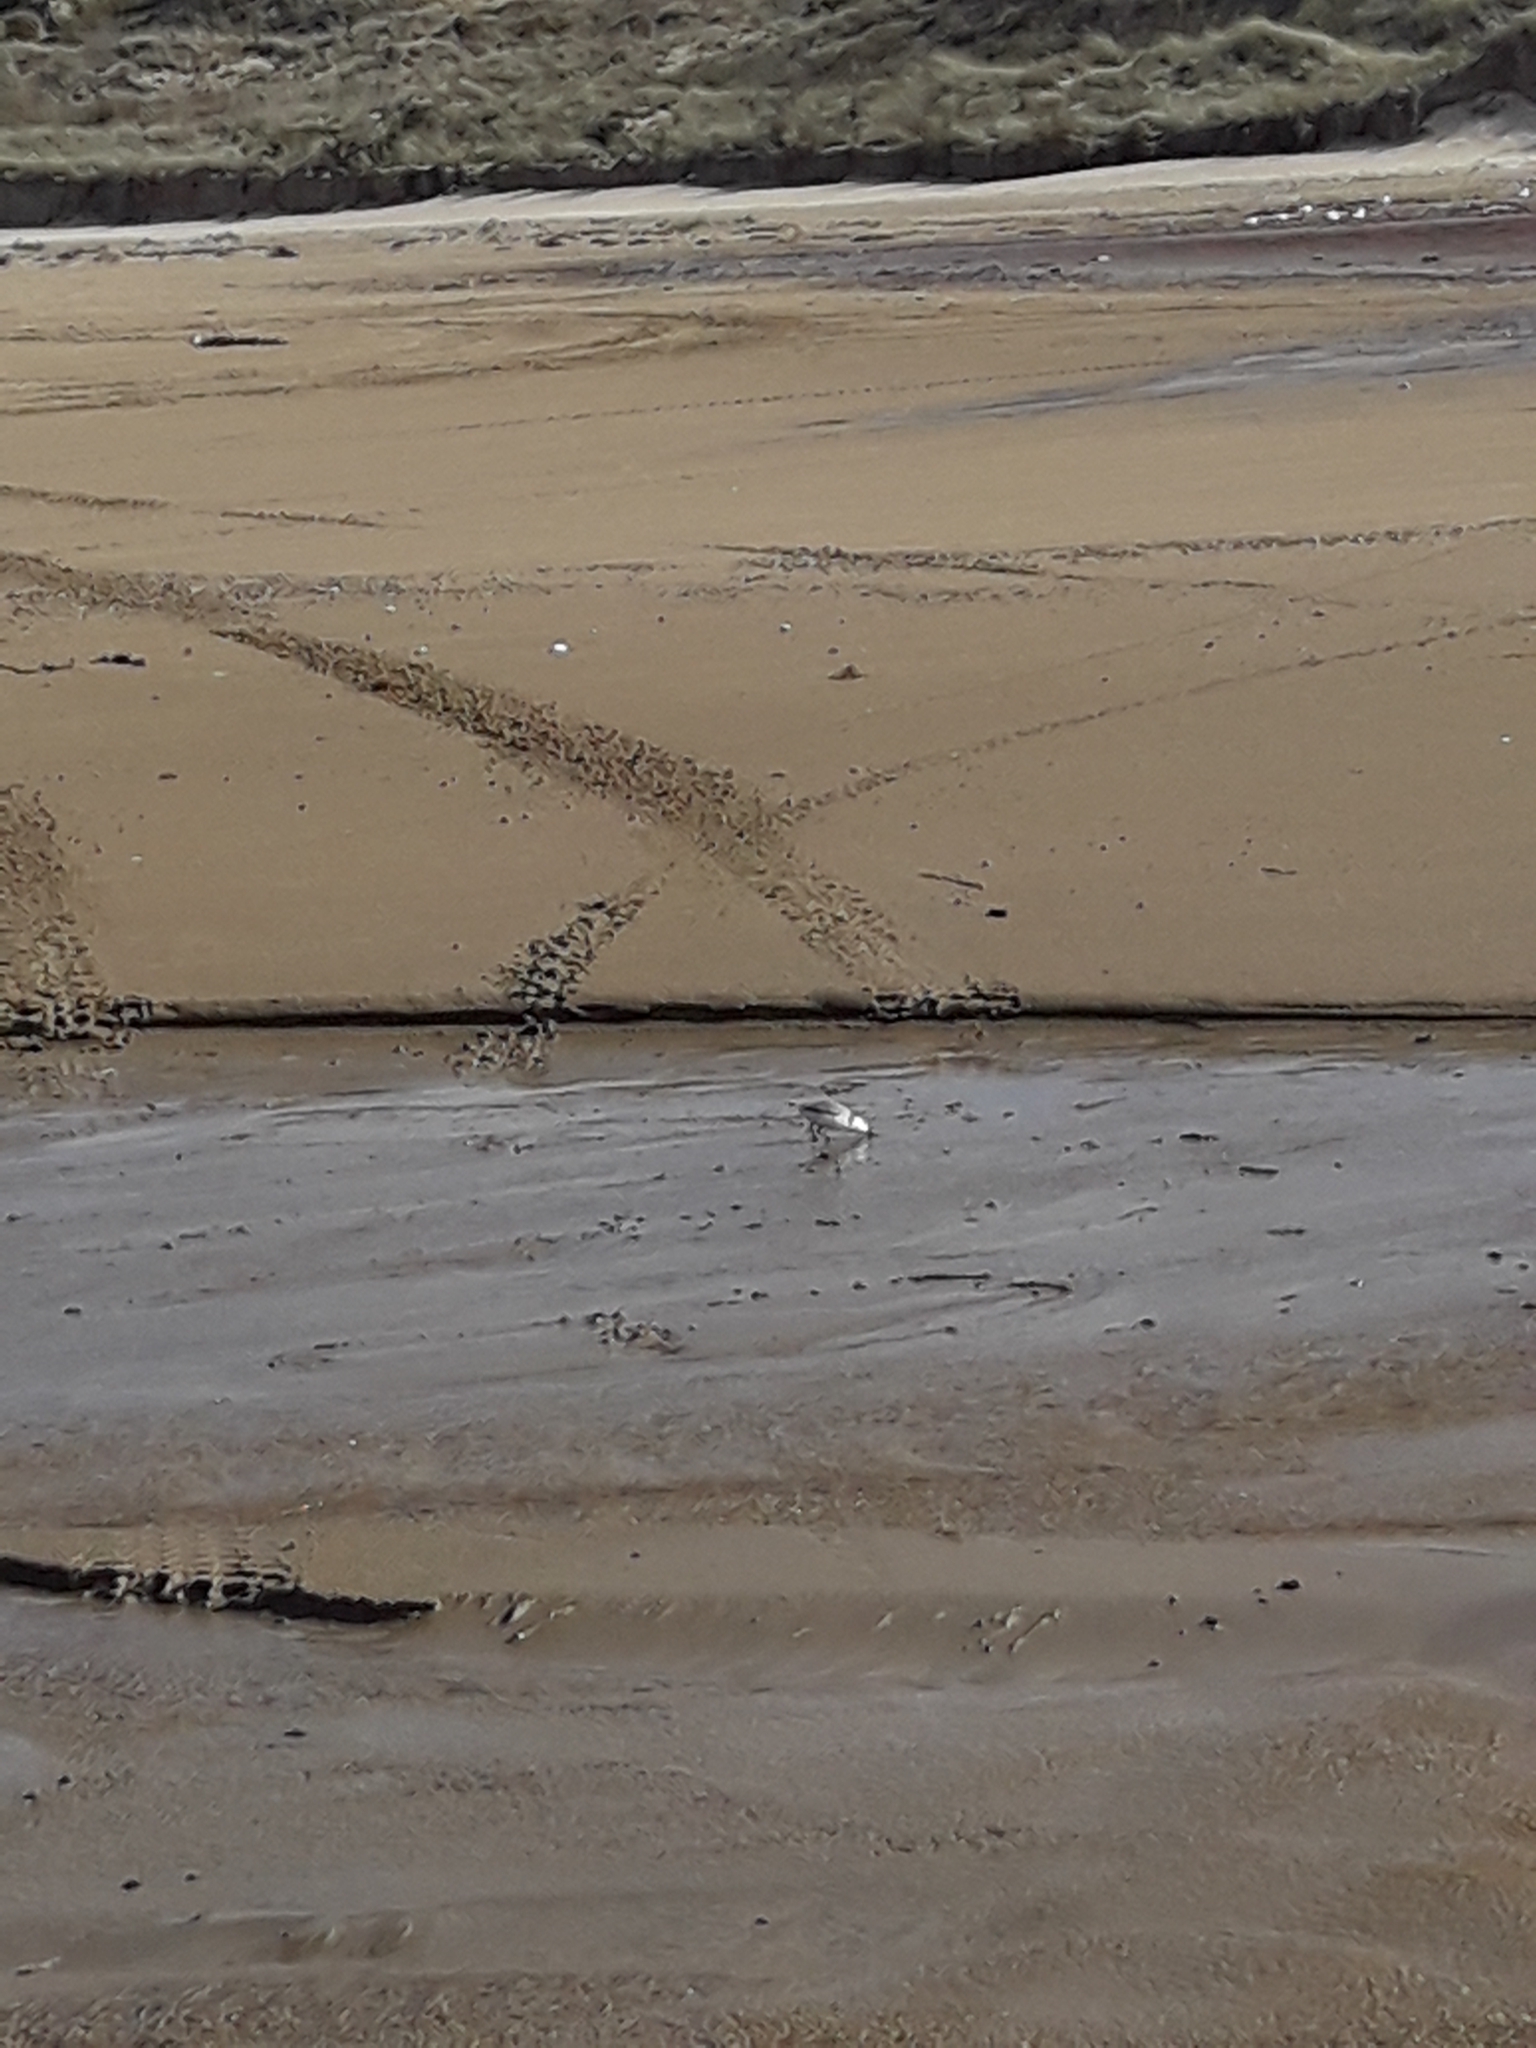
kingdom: Animalia
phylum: Chordata
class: Aves
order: Charadriiformes
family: Charadriidae
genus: Anarhynchus
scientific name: Anarhynchus frontalis
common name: Wrybill
